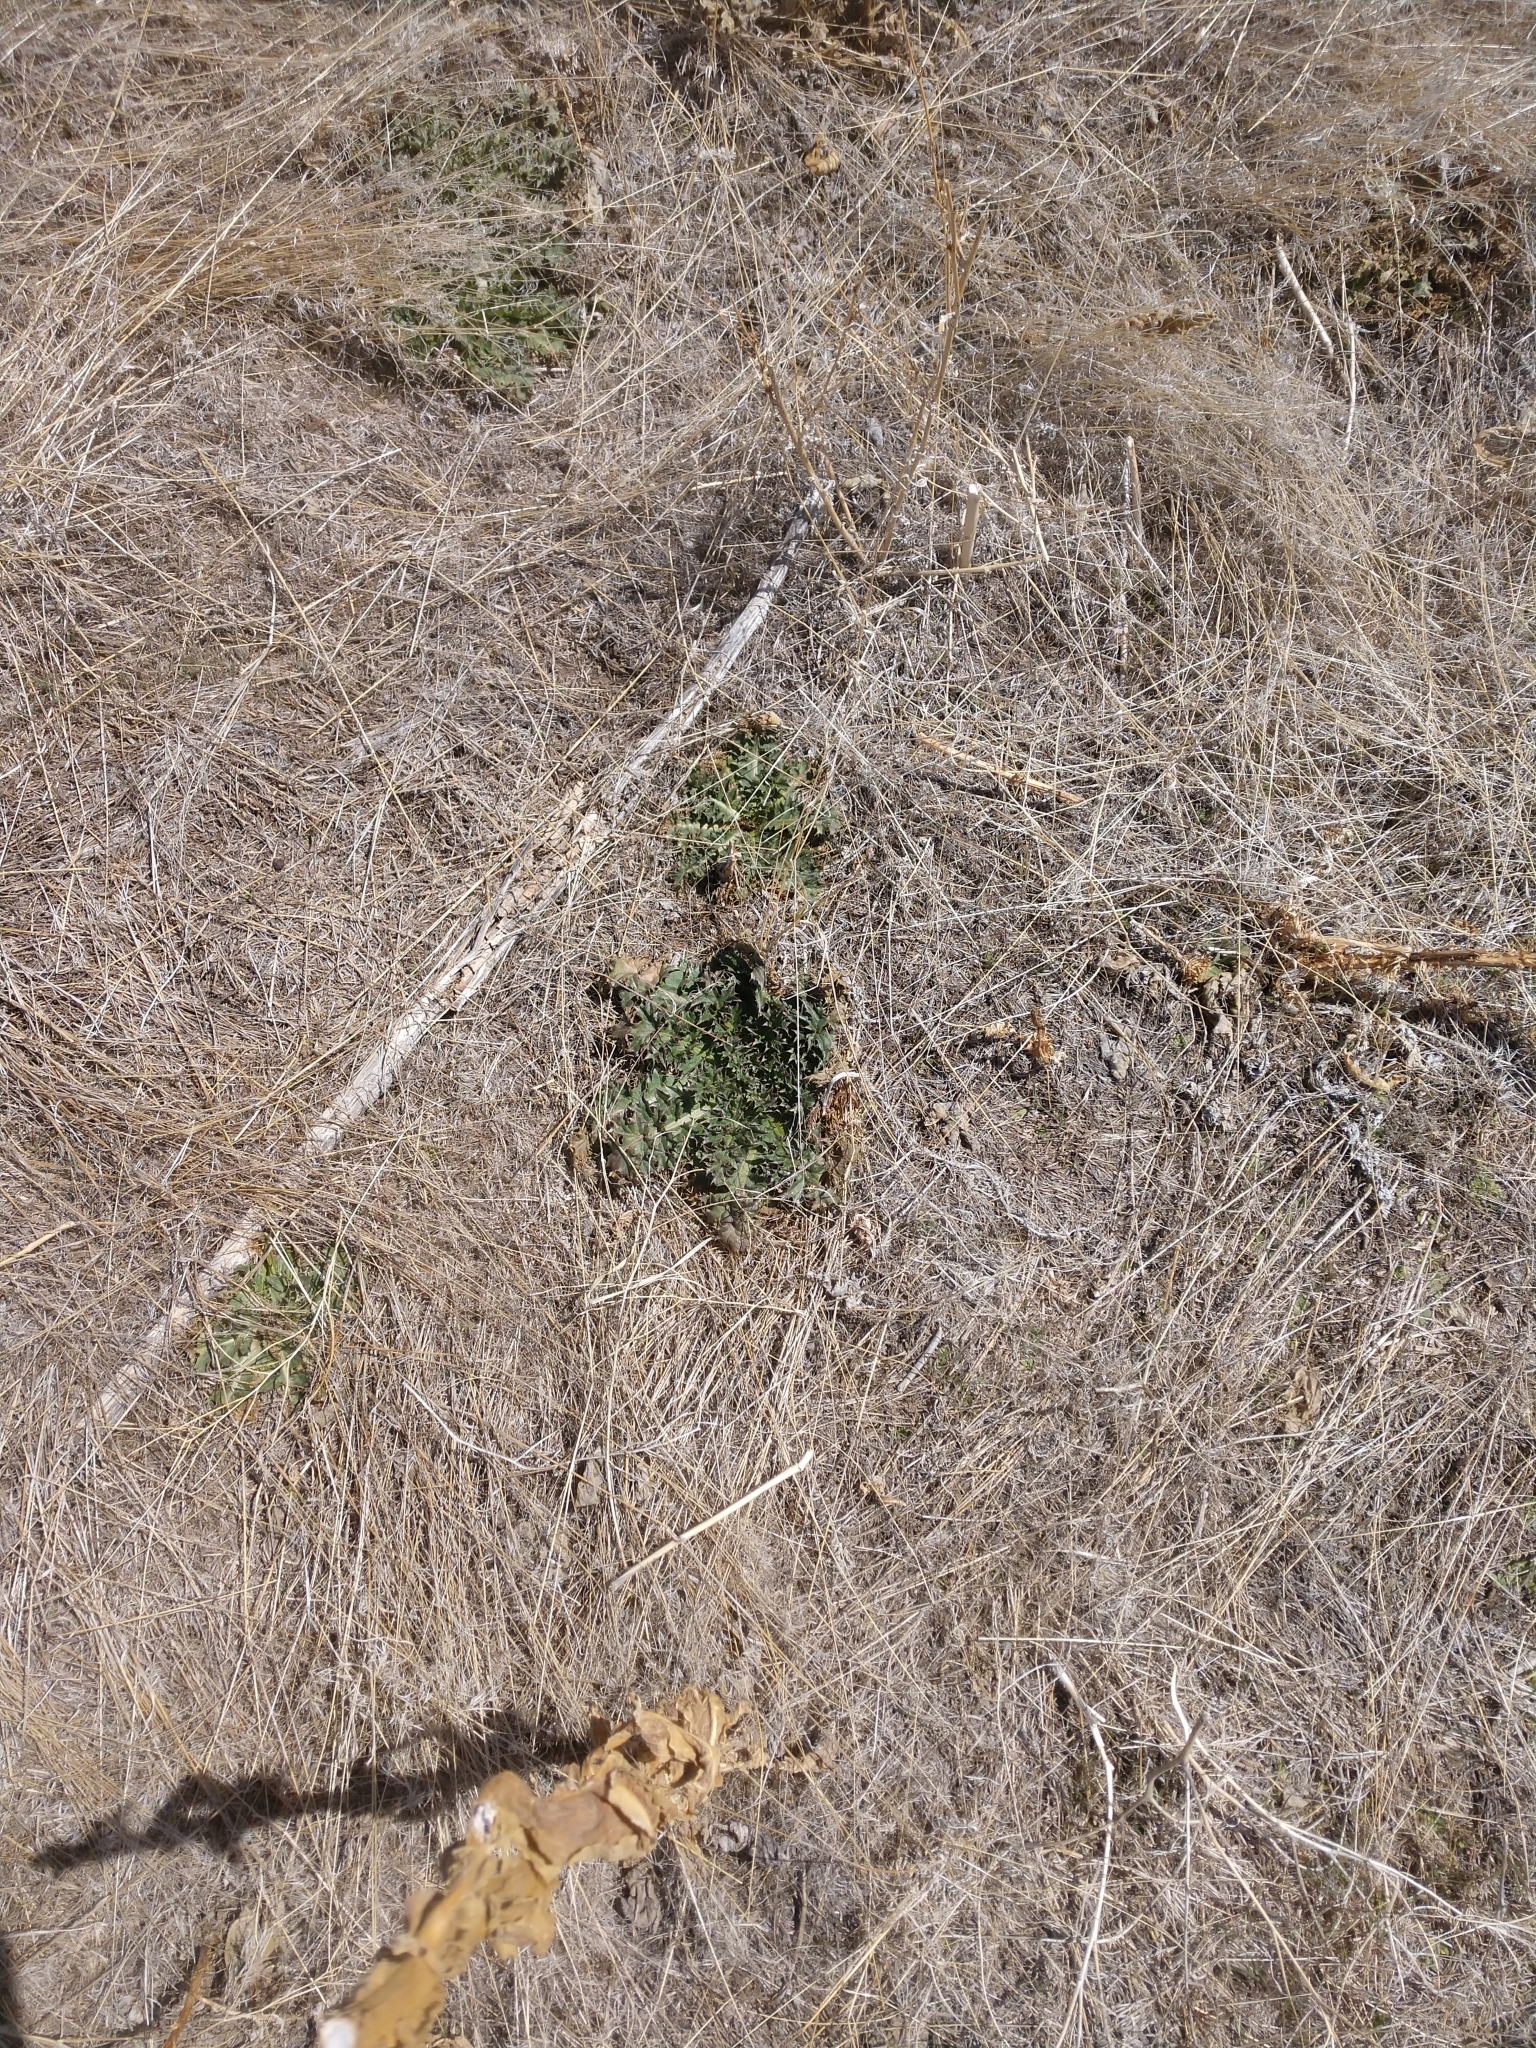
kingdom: Plantae
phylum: Tracheophyta
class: Magnoliopsida
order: Asterales
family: Asteraceae
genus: Carduus
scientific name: Carduus nutans
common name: Musk thistle
